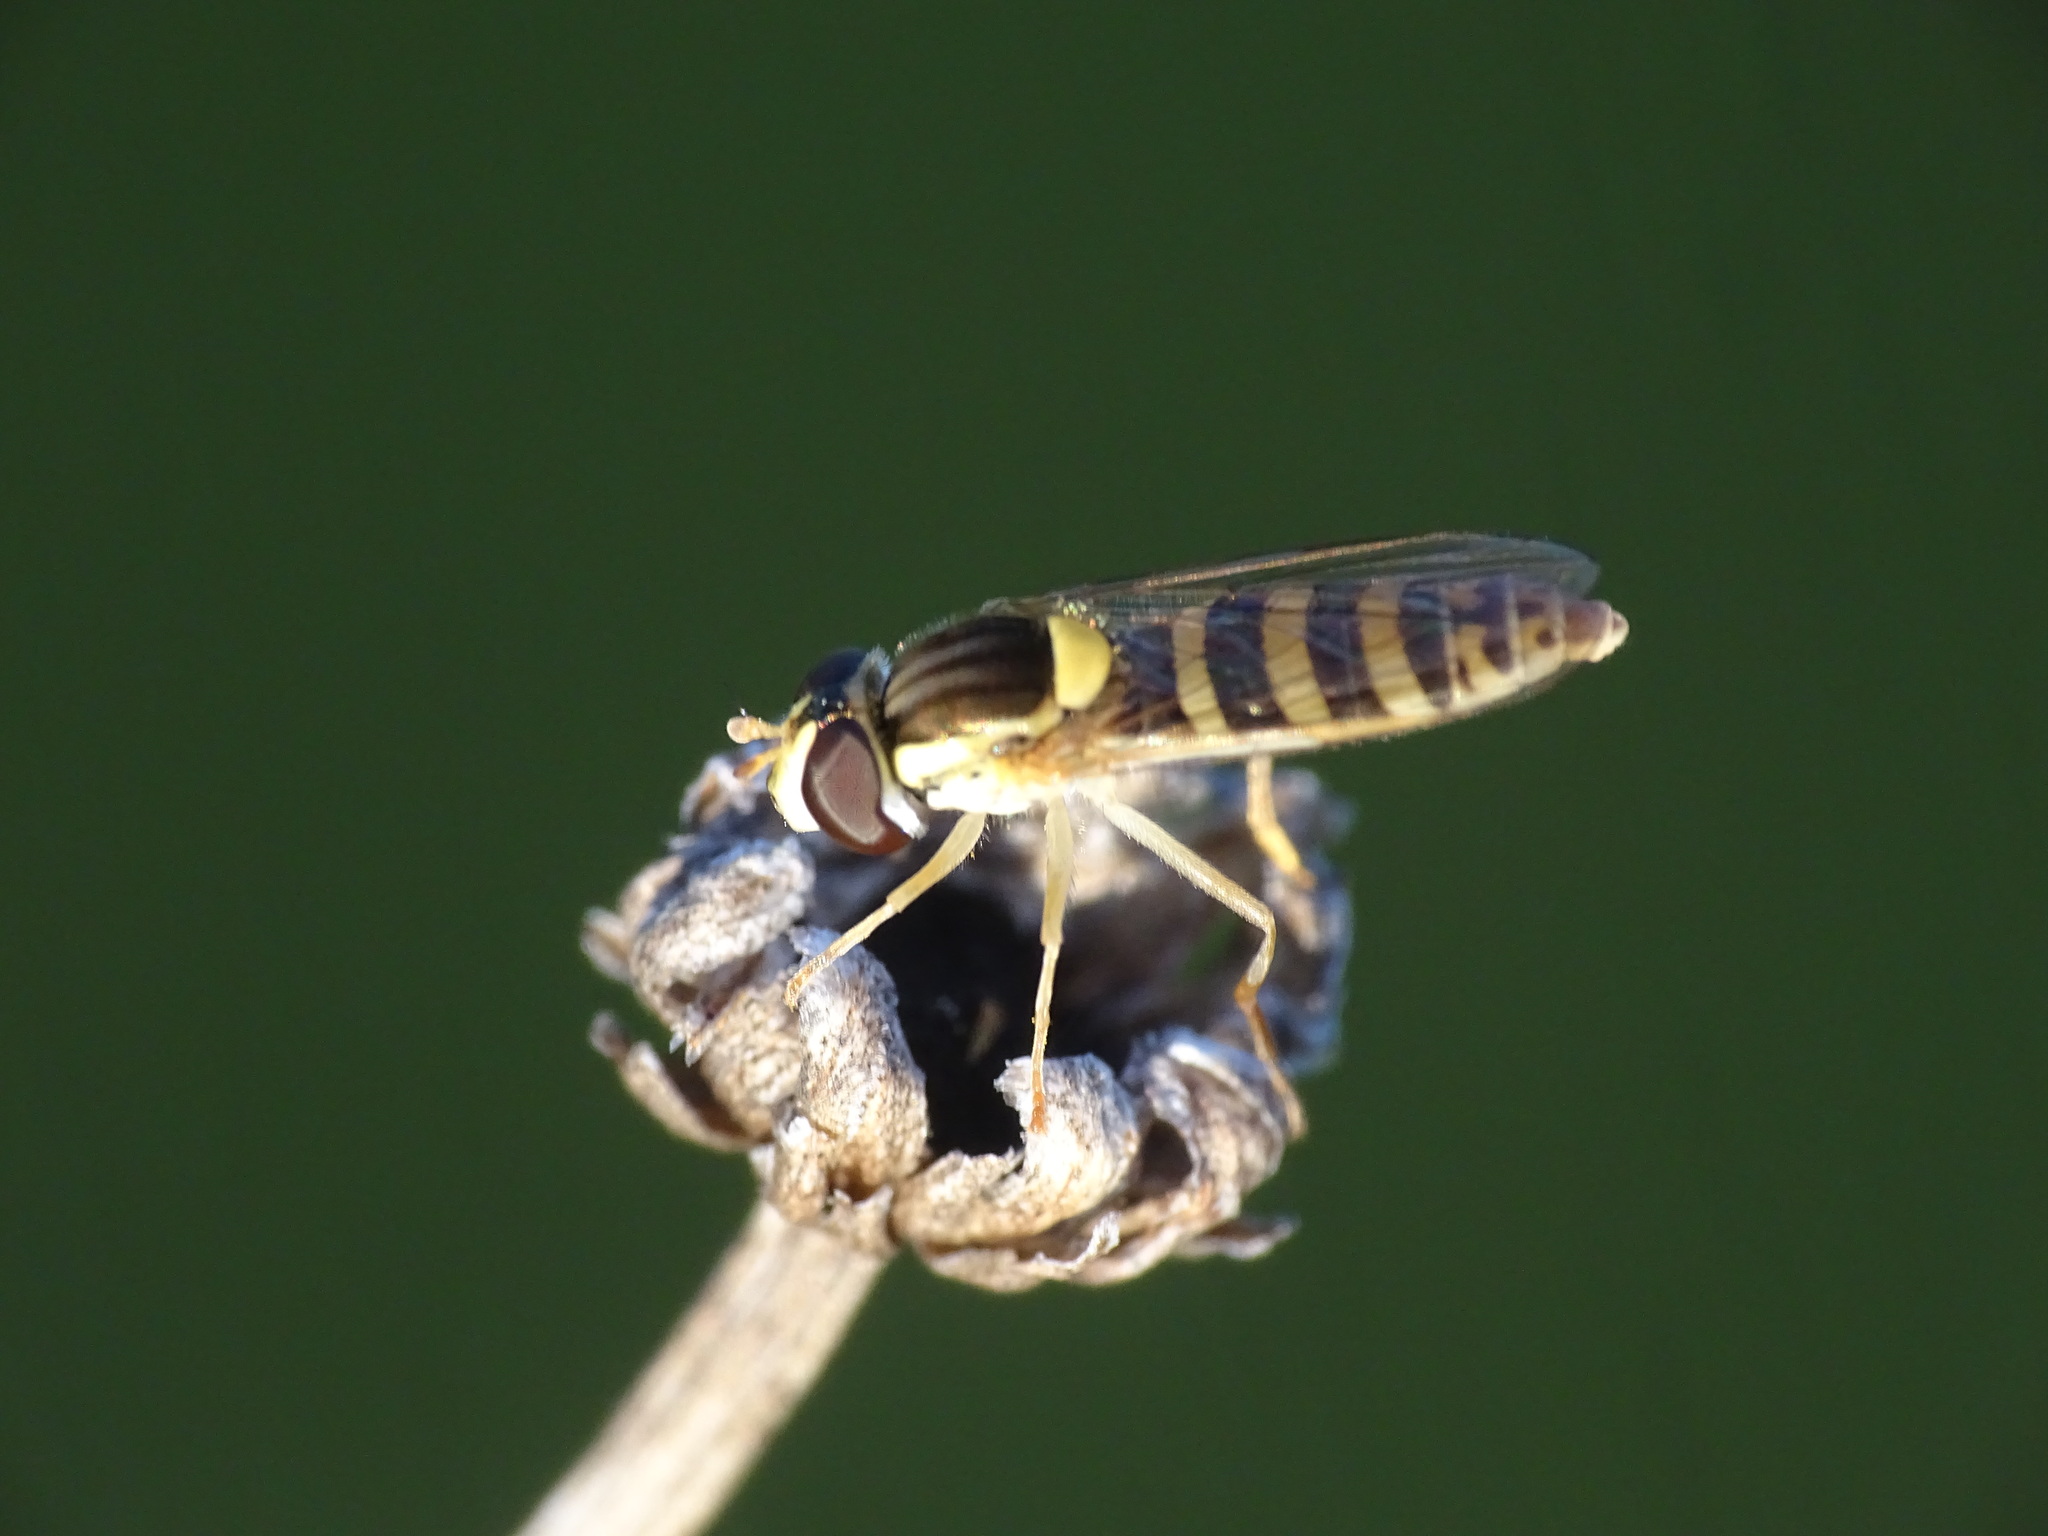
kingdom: Animalia
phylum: Arthropoda
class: Insecta
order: Diptera
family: Syrphidae
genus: Sphaerophoria
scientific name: Sphaerophoria
